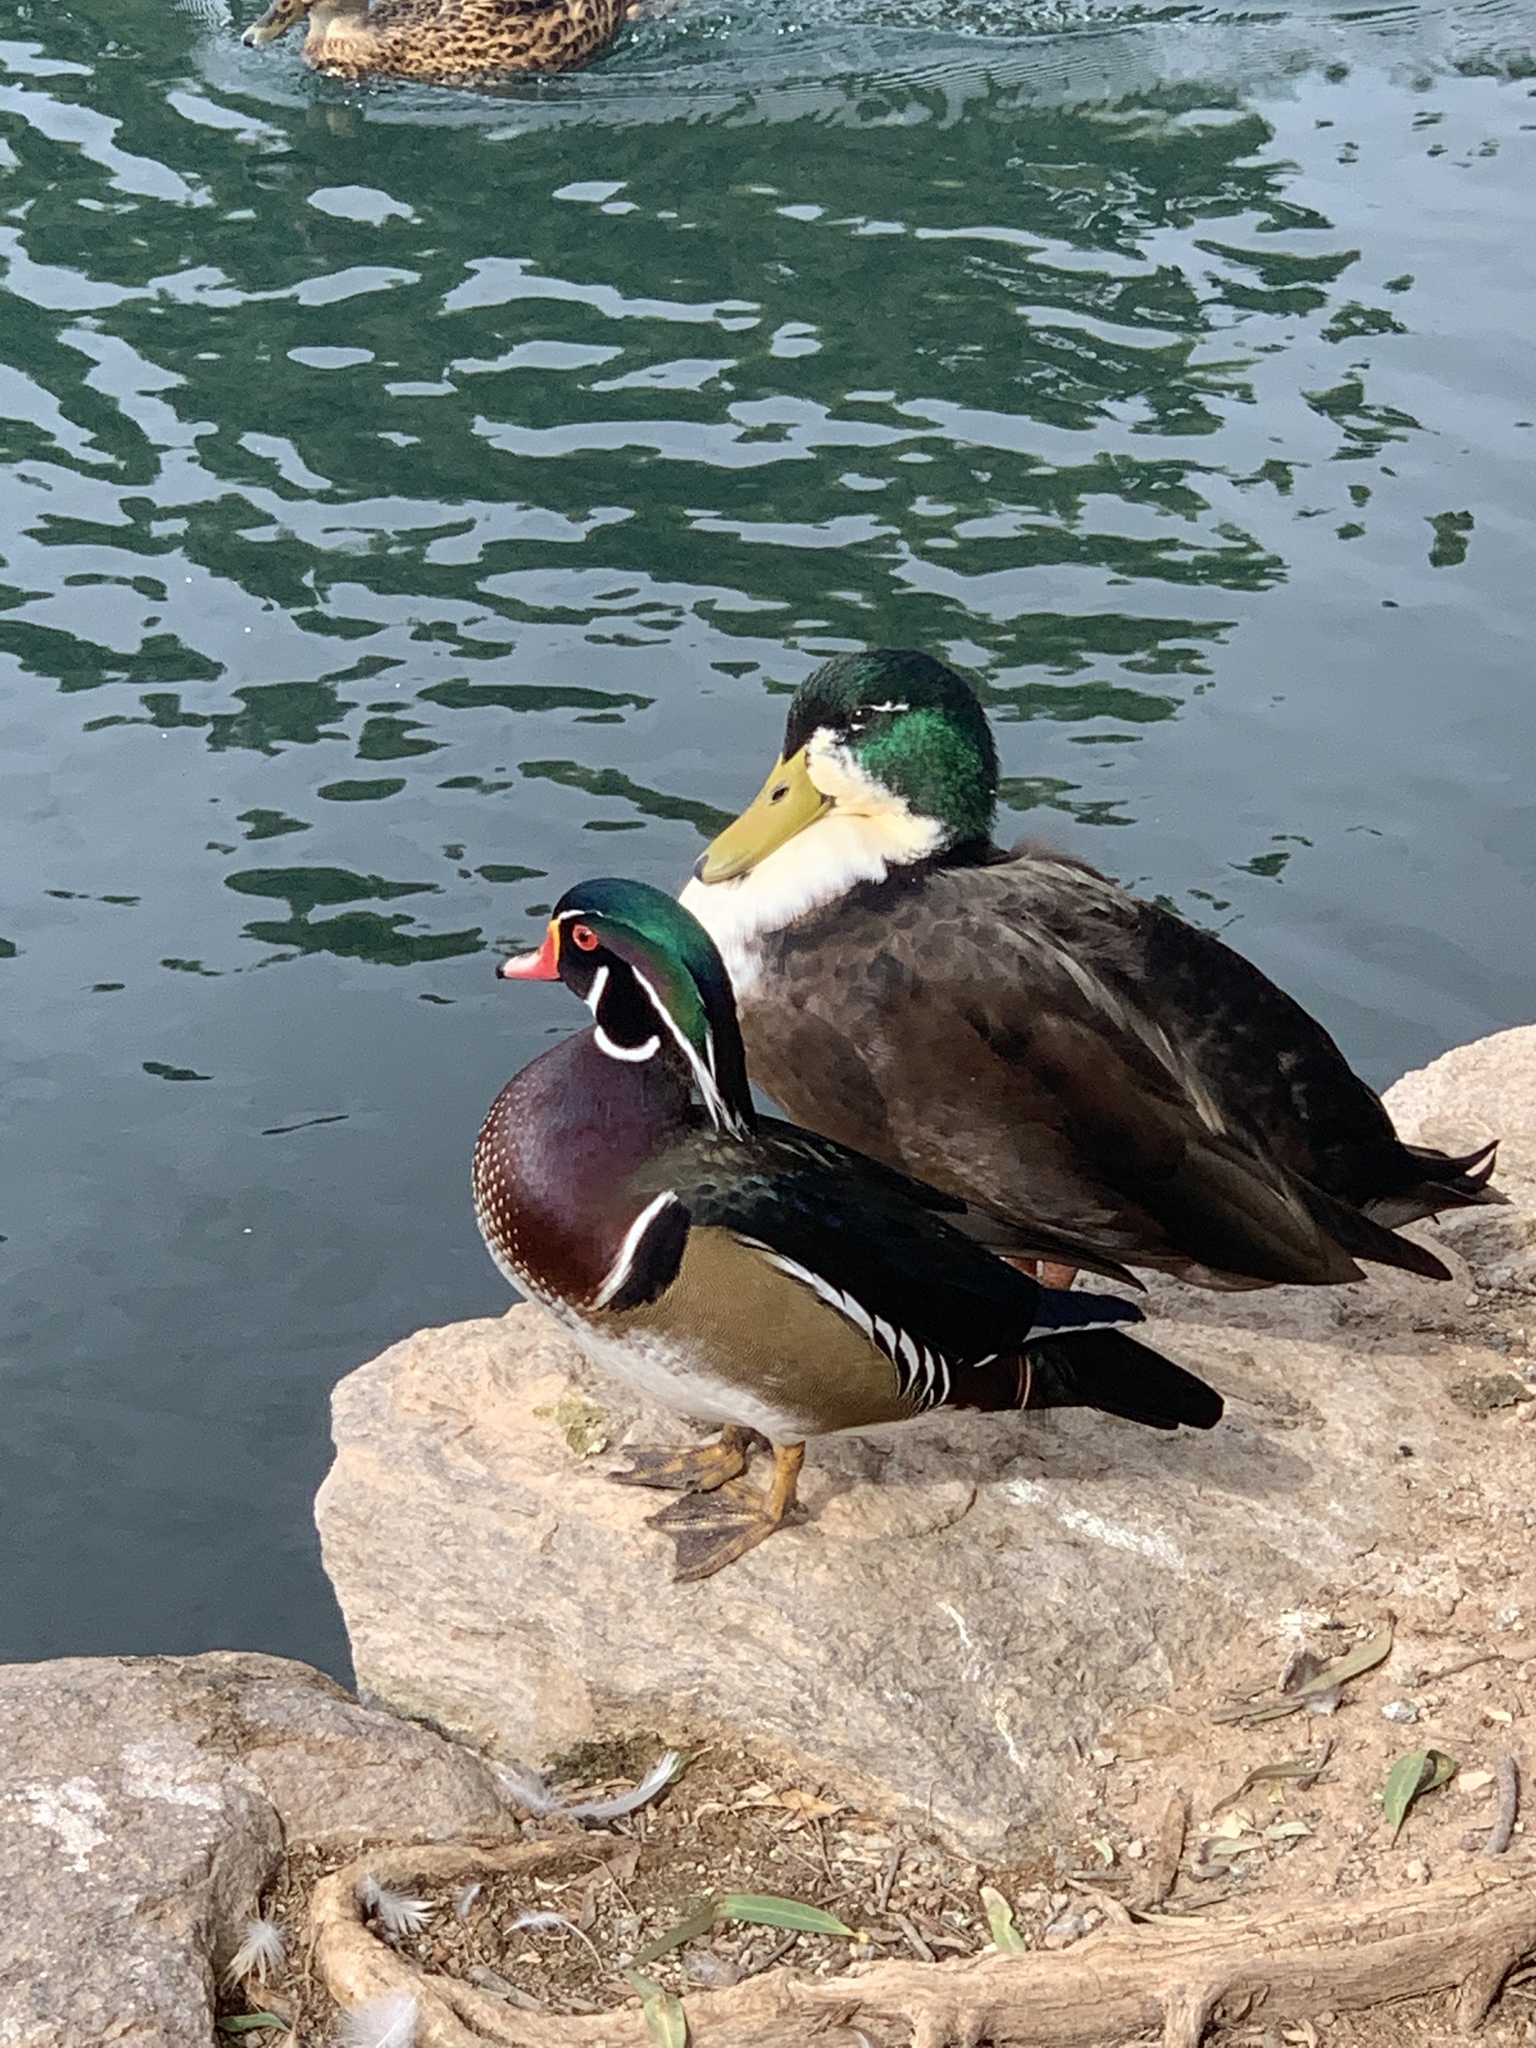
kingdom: Animalia
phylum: Chordata
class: Aves
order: Anseriformes
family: Anatidae
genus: Aix
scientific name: Aix sponsa
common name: Wood duck
